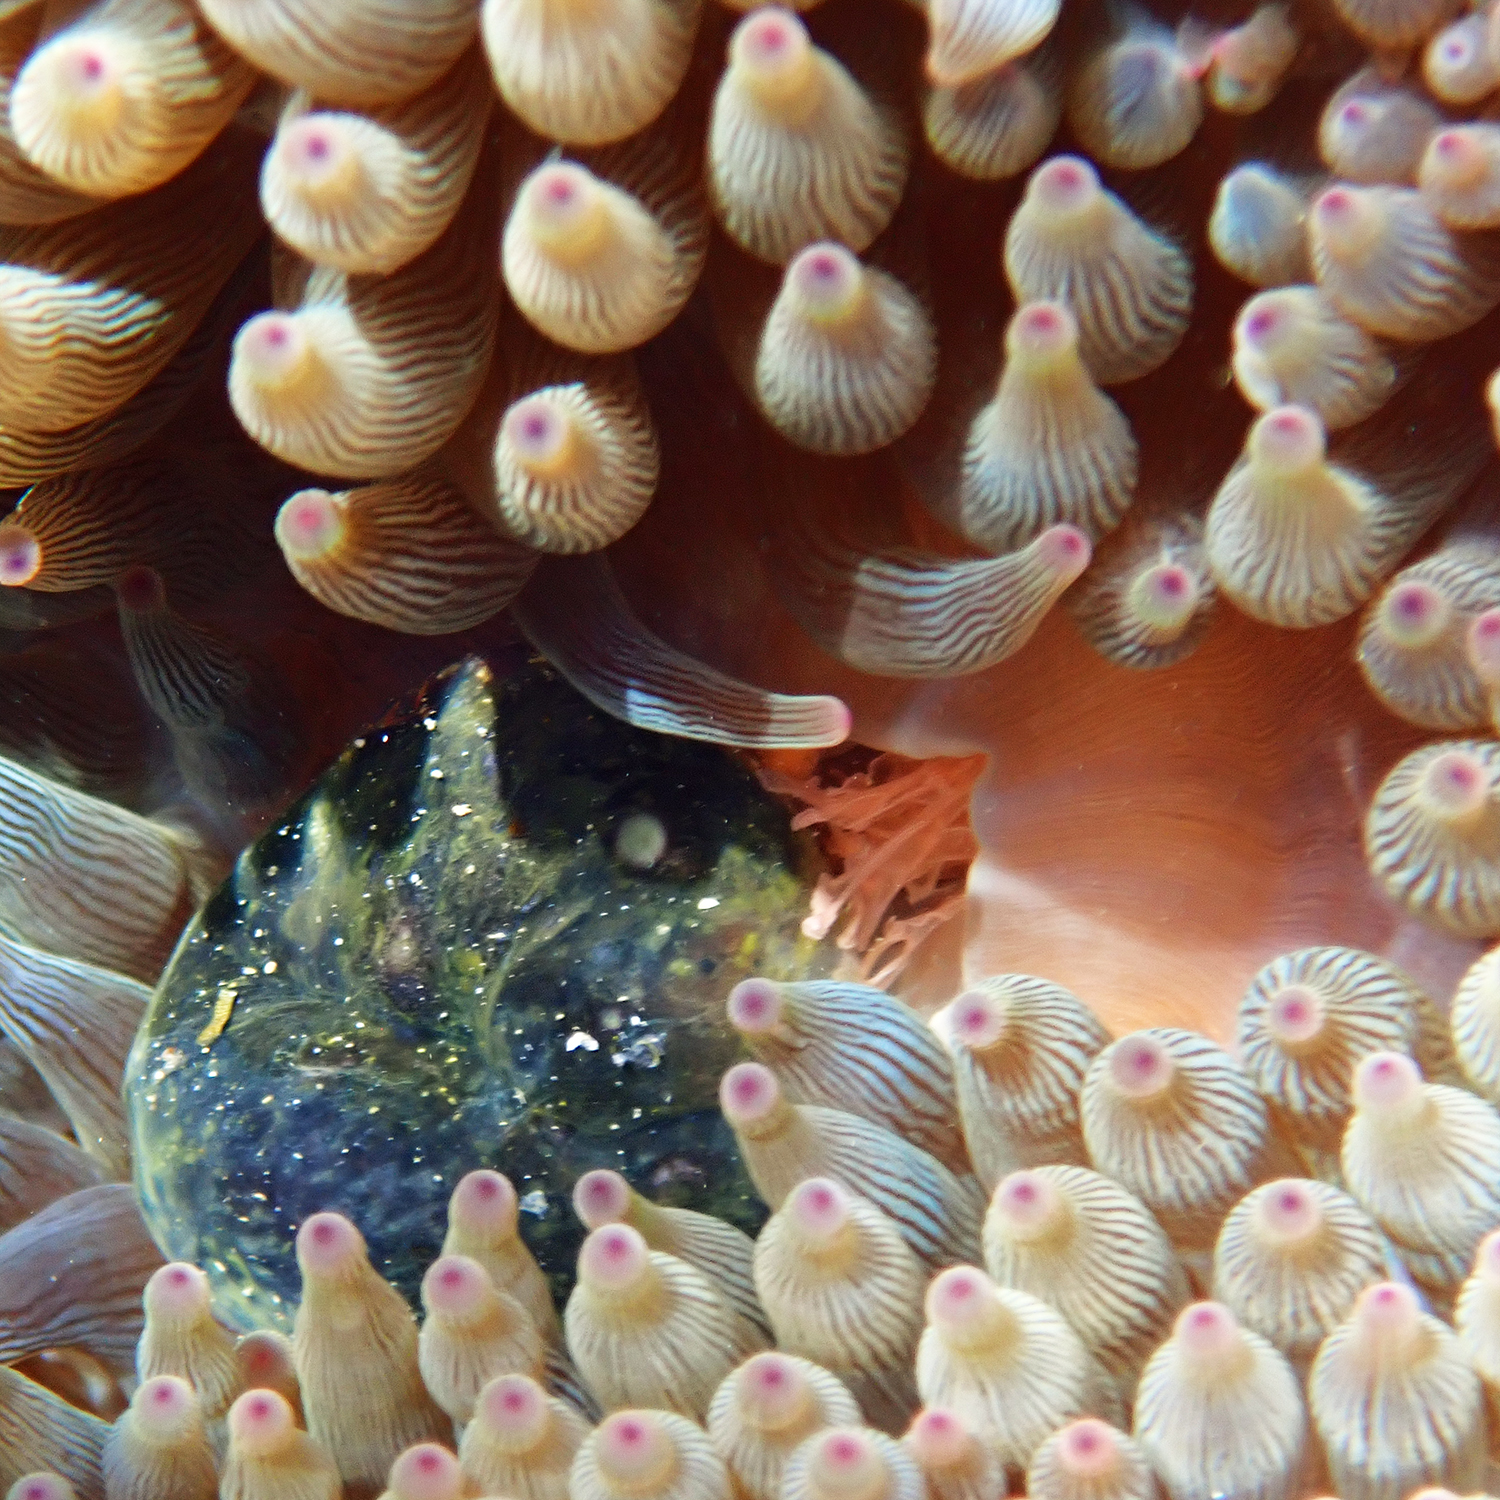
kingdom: Animalia
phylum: Cnidaria
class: Anthozoa
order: Actiniaria
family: Actiniidae
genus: Entacmaea
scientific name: Entacmaea quadricolor
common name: Bulb tentacle sea anemone
